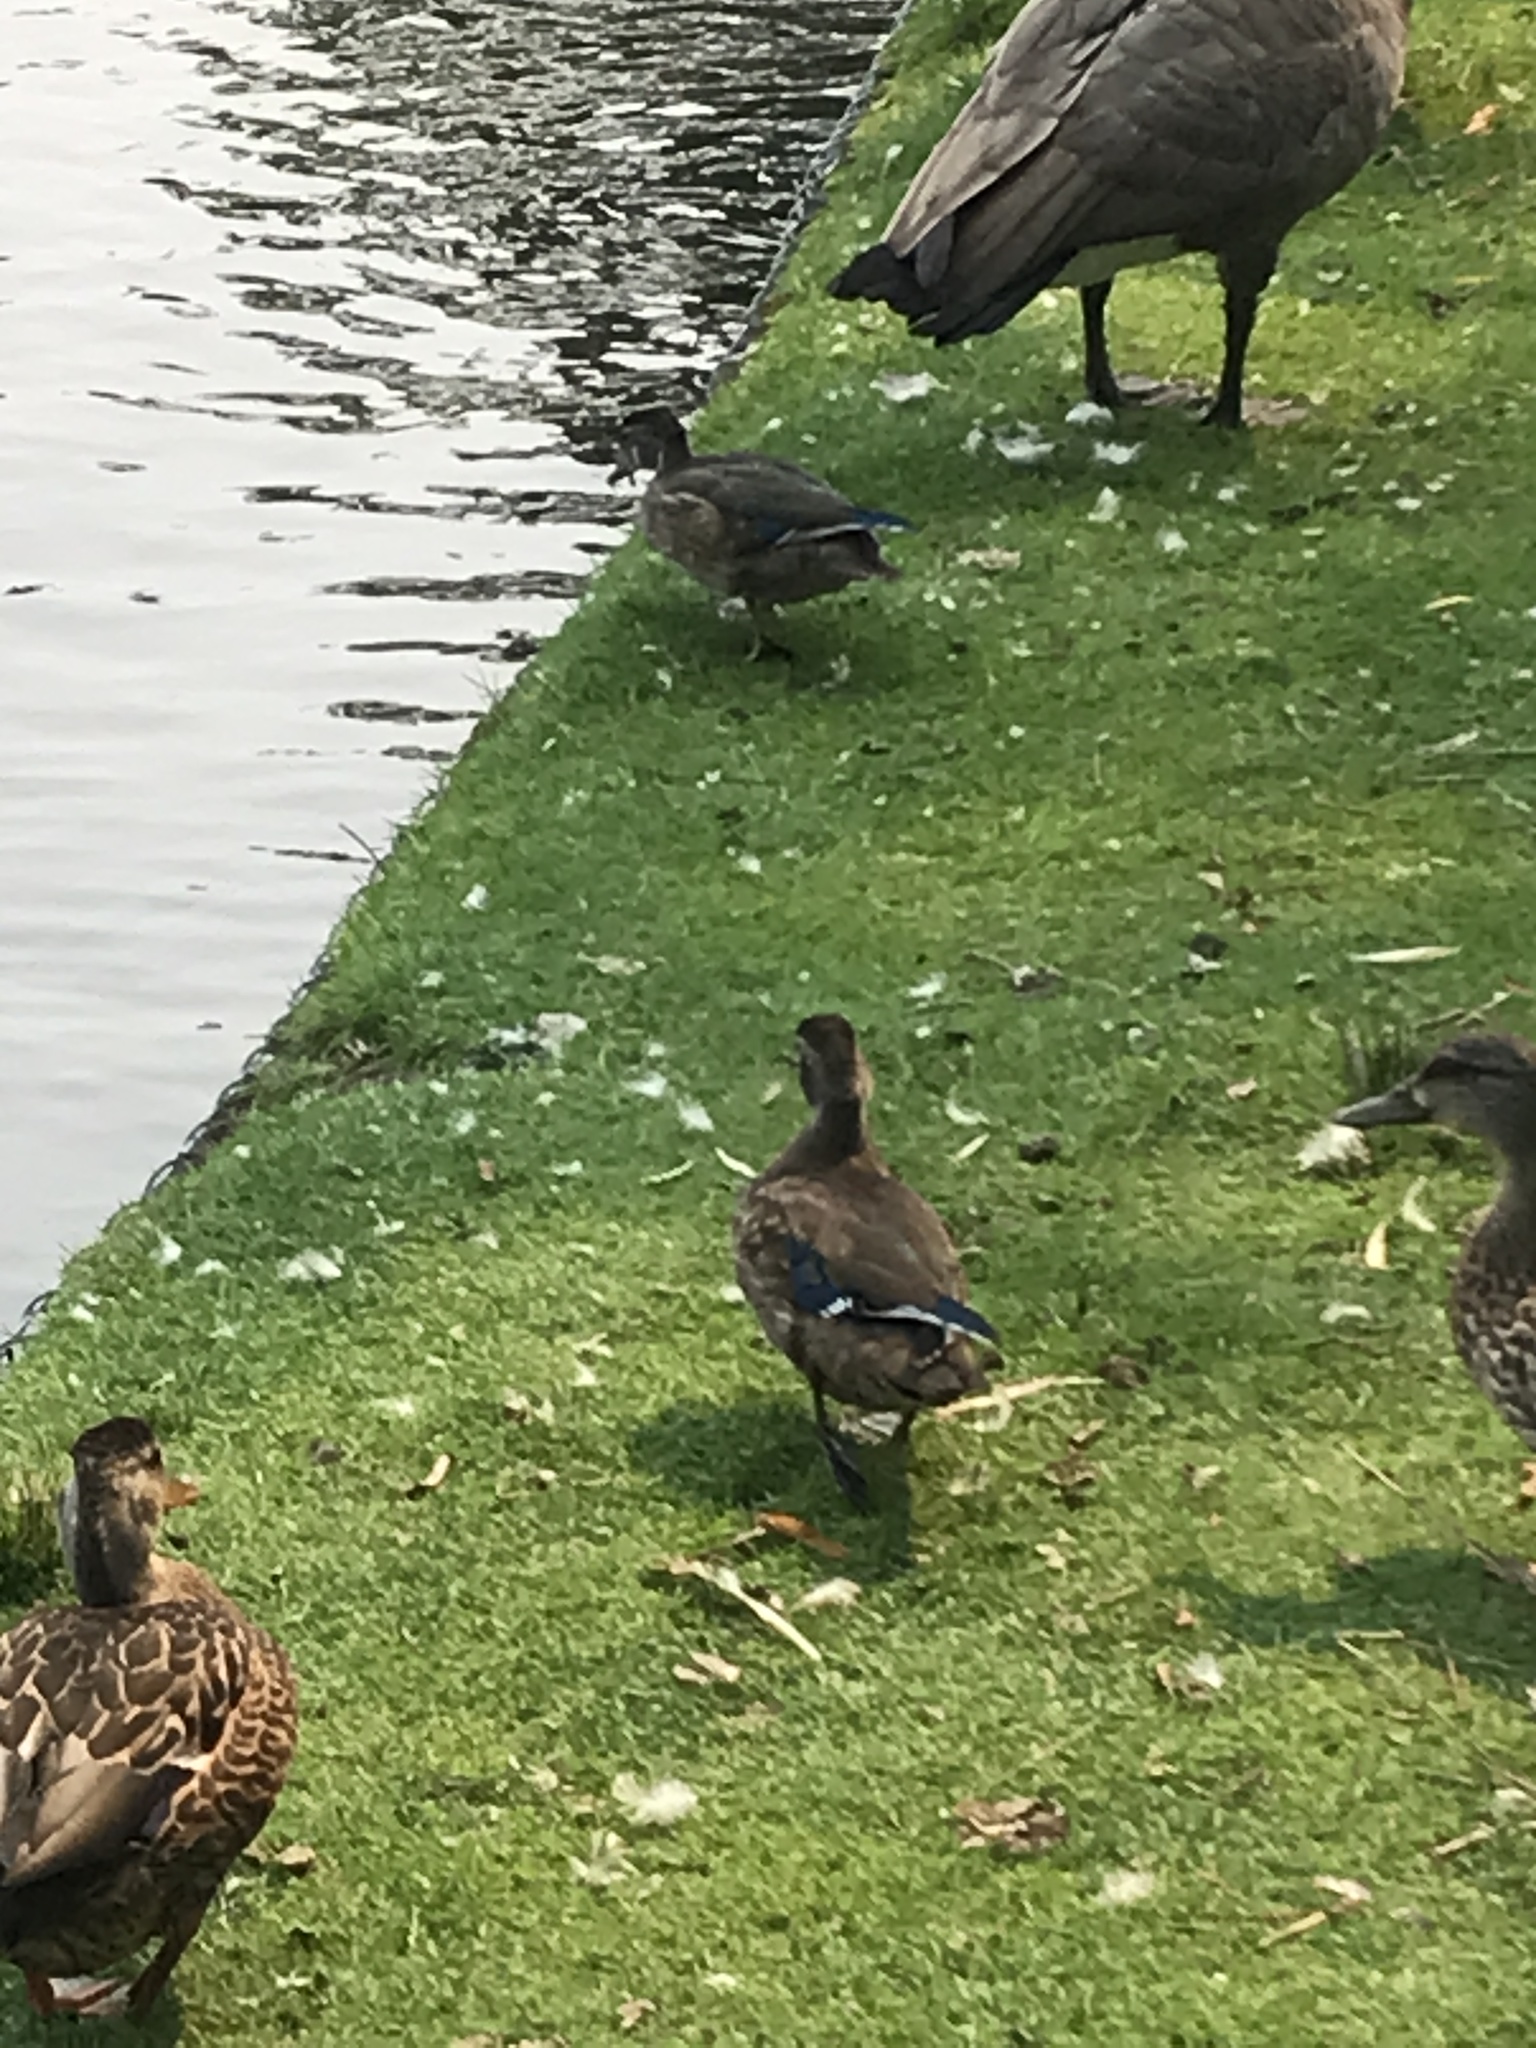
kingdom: Animalia
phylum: Chordata
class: Aves
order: Anseriformes
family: Anatidae
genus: Aix
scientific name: Aix sponsa
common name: Wood duck
